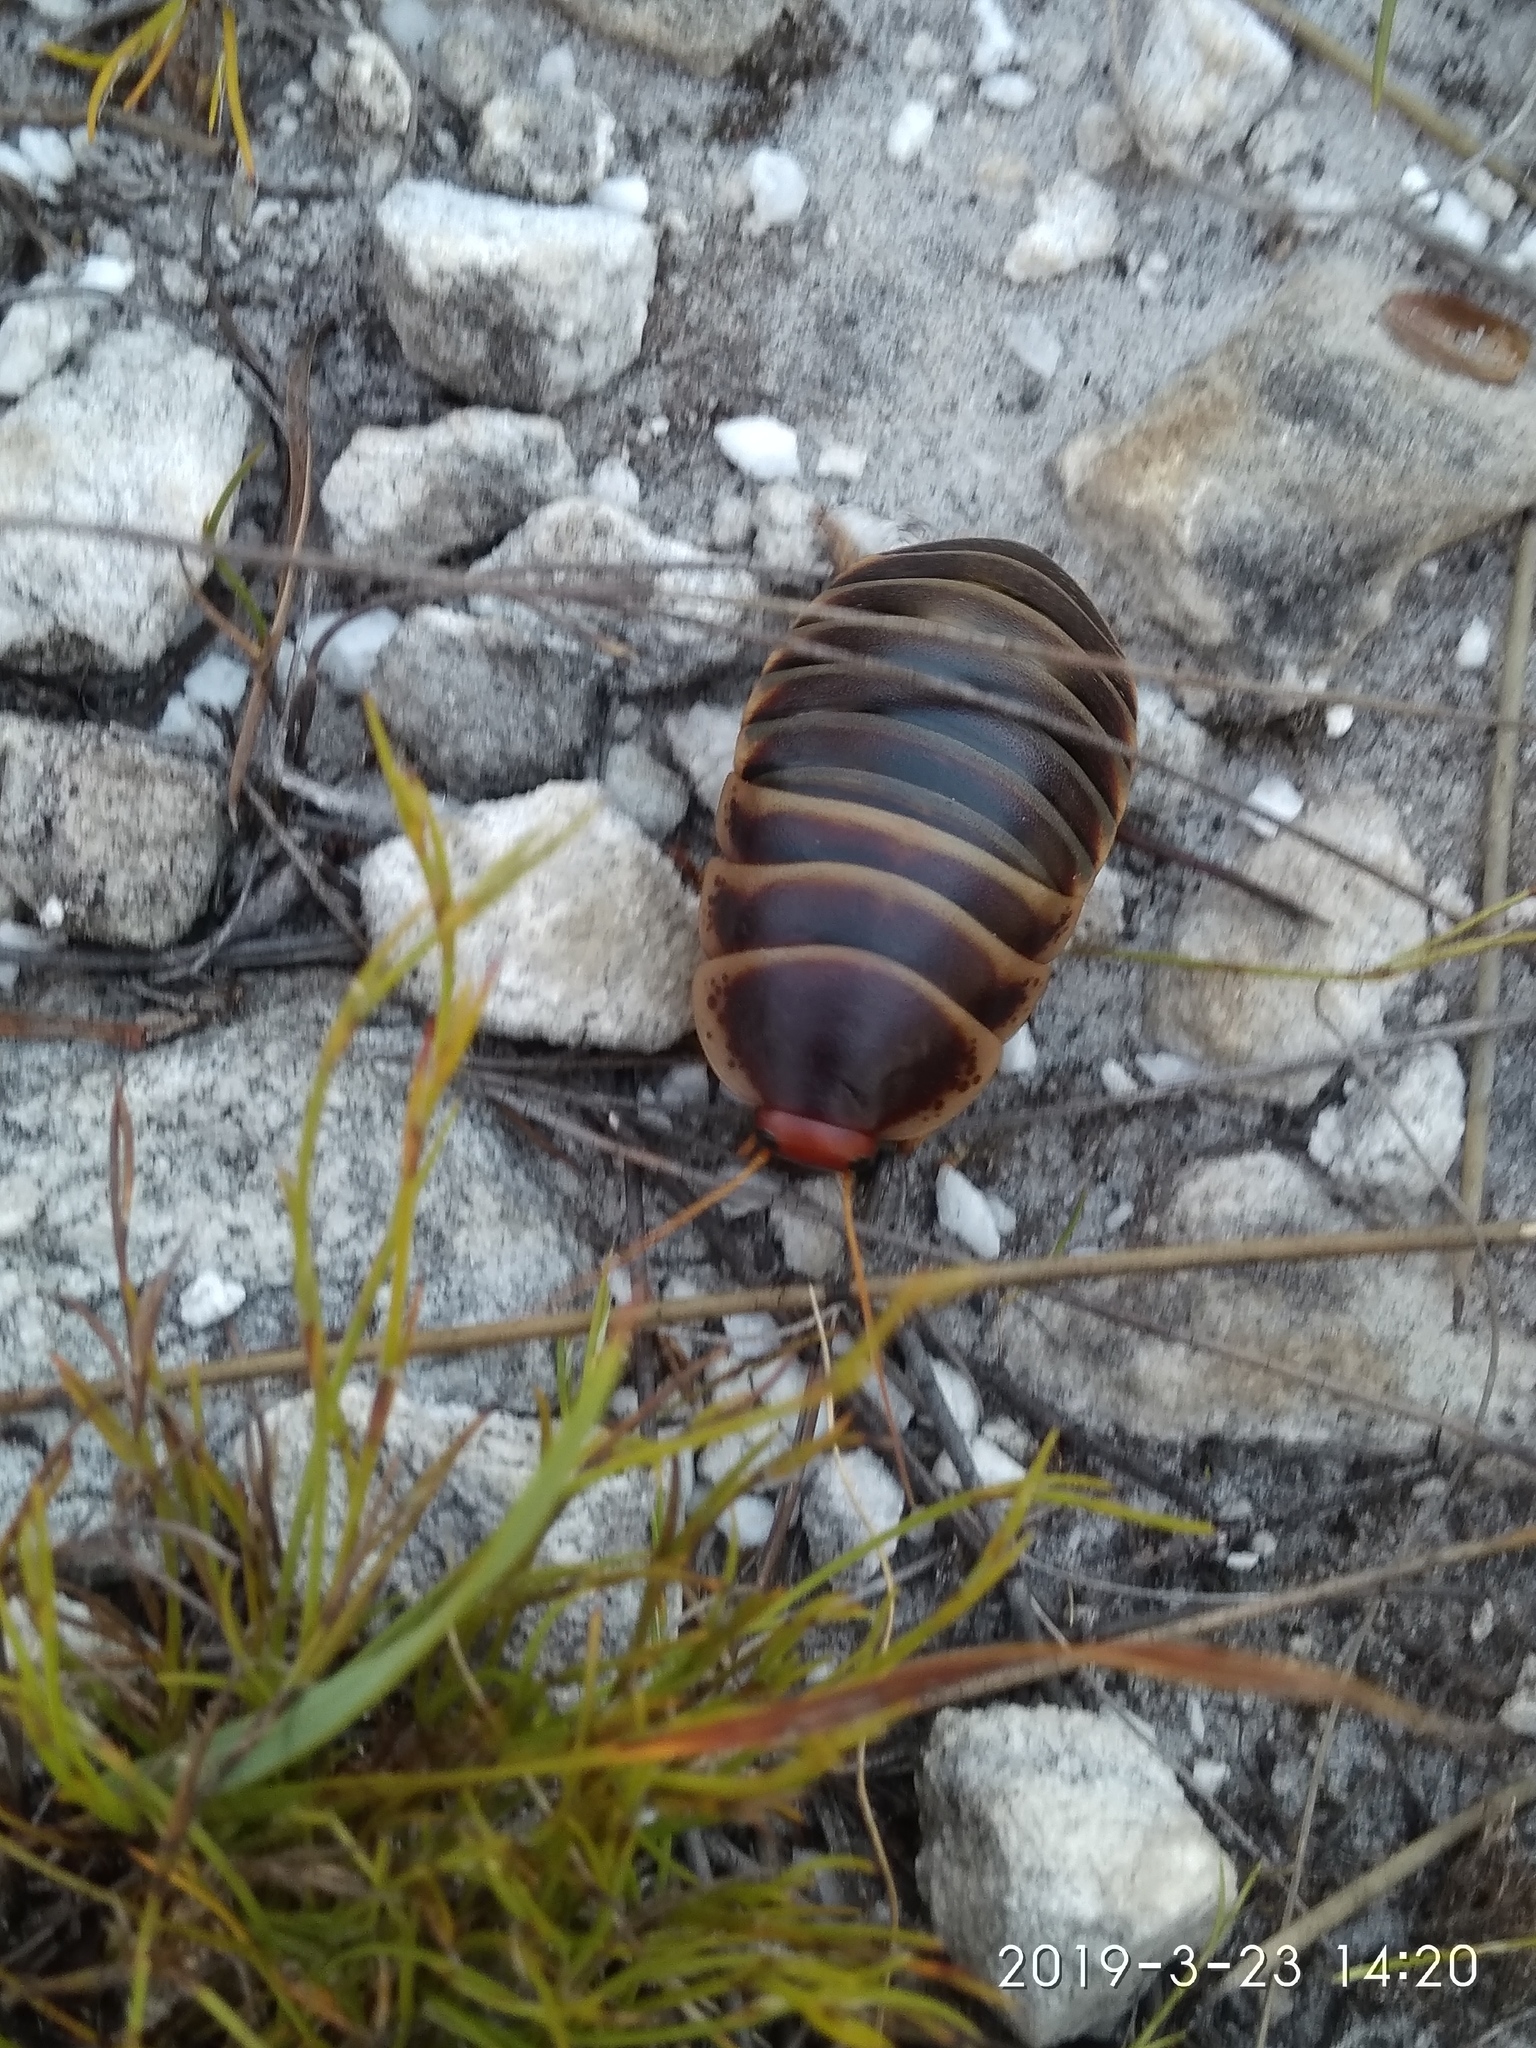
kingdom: Animalia
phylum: Arthropoda
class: Insecta
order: Blattodea
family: Blaberidae
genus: Aptera
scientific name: Aptera fusca
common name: Cape mountain cockroach
